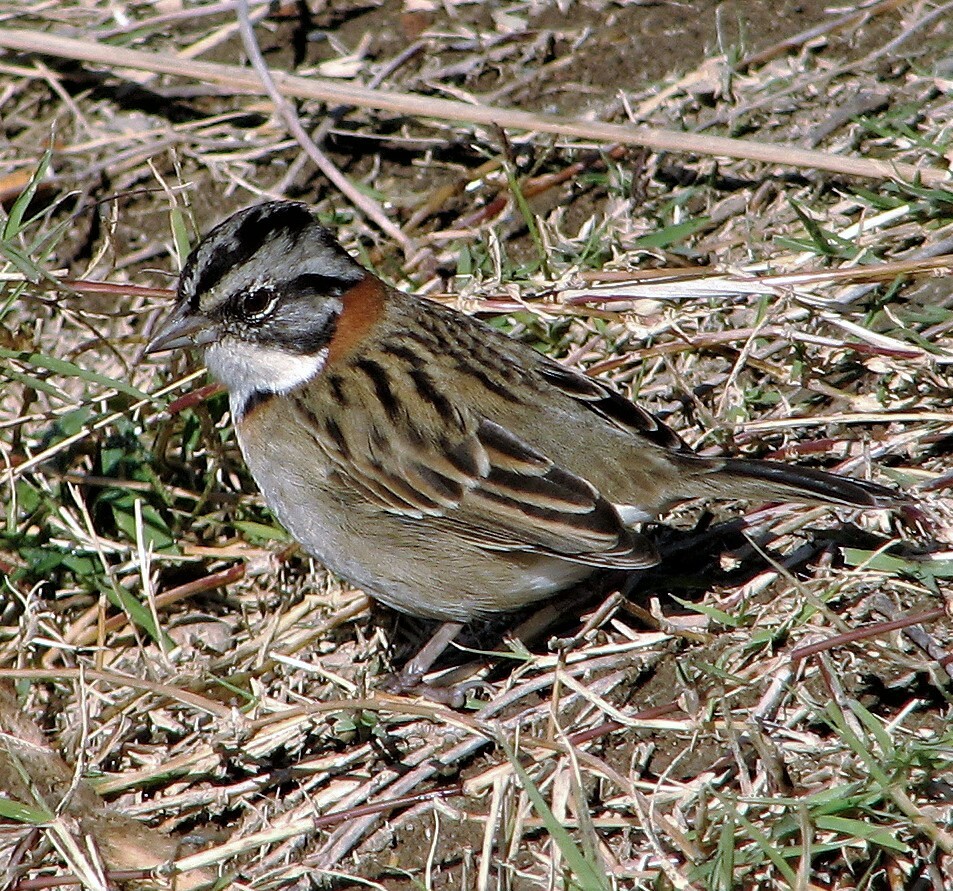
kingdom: Animalia
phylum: Chordata
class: Aves
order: Passeriformes
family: Passerellidae
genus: Zonotrichia
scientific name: Zonotrichia capensis
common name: Rufous-collared sparrow
